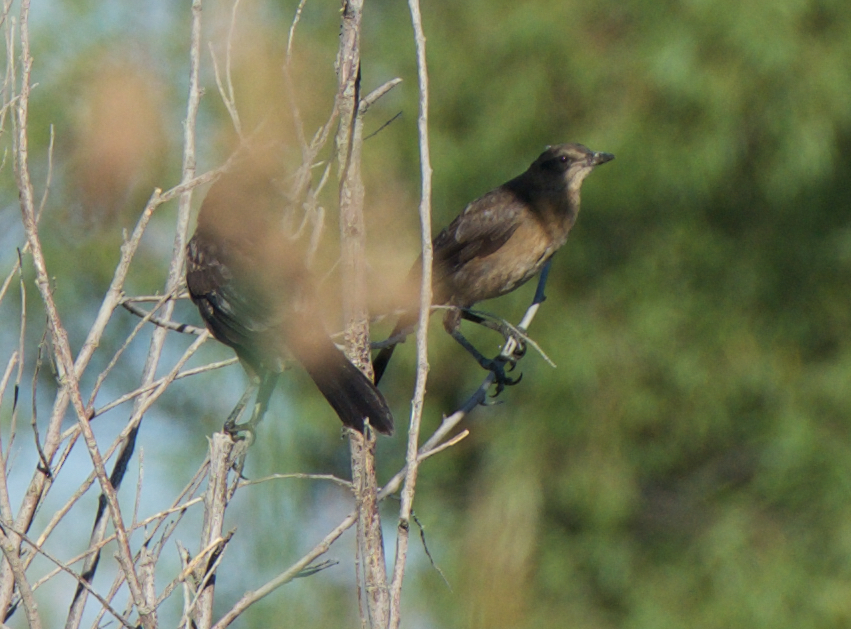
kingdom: Animalia
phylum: Chordata
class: Aves
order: Passeriformes
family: Icteridae
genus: Quiscalus
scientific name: Quiscalus mexicanus
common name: Great-tailed grackle
